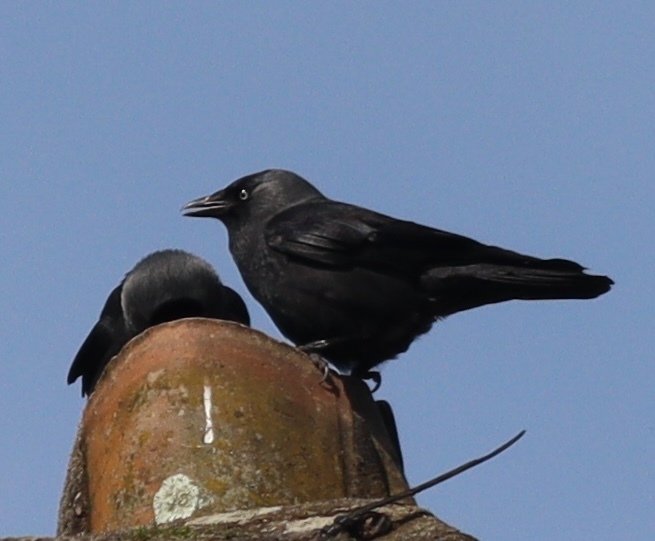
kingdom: Animalia
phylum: Chordata
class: Aves
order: Passeriformes
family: Corvidae
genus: Coloeus
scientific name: Coloeus monedula
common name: Western jackdaw
